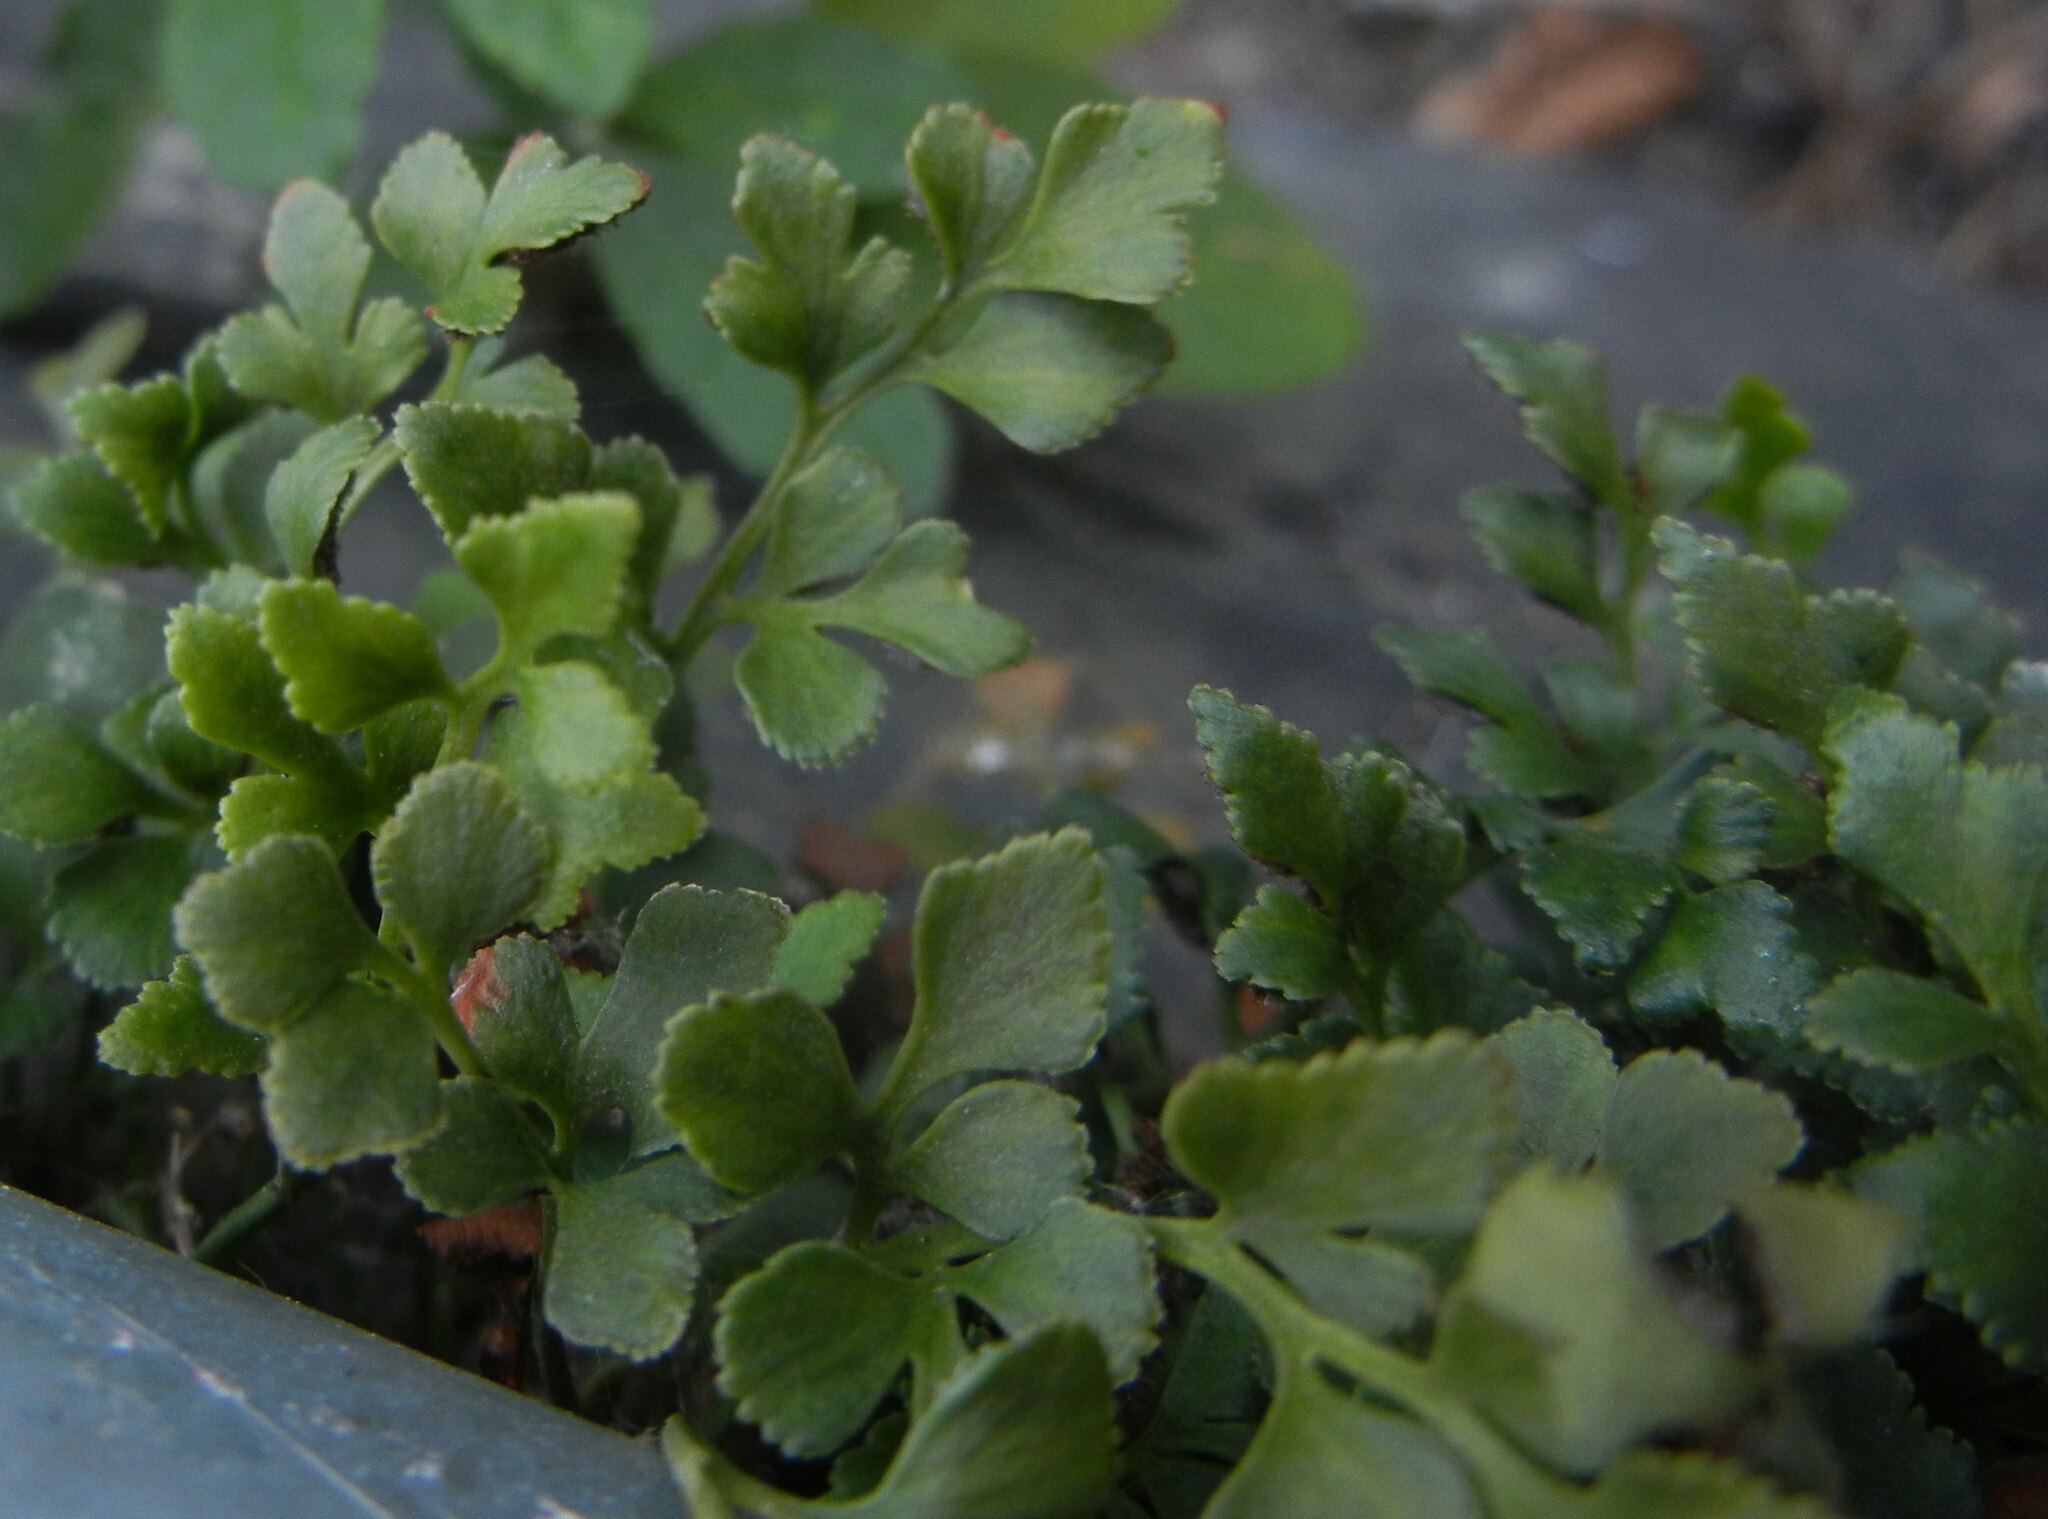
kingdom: Plantae
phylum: Tracheophyta
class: Polypodiopsida
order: Polypodiales
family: Aspleniaceae
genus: Asplenium
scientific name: Asplenium ruta-muraria
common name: Wall-rue
